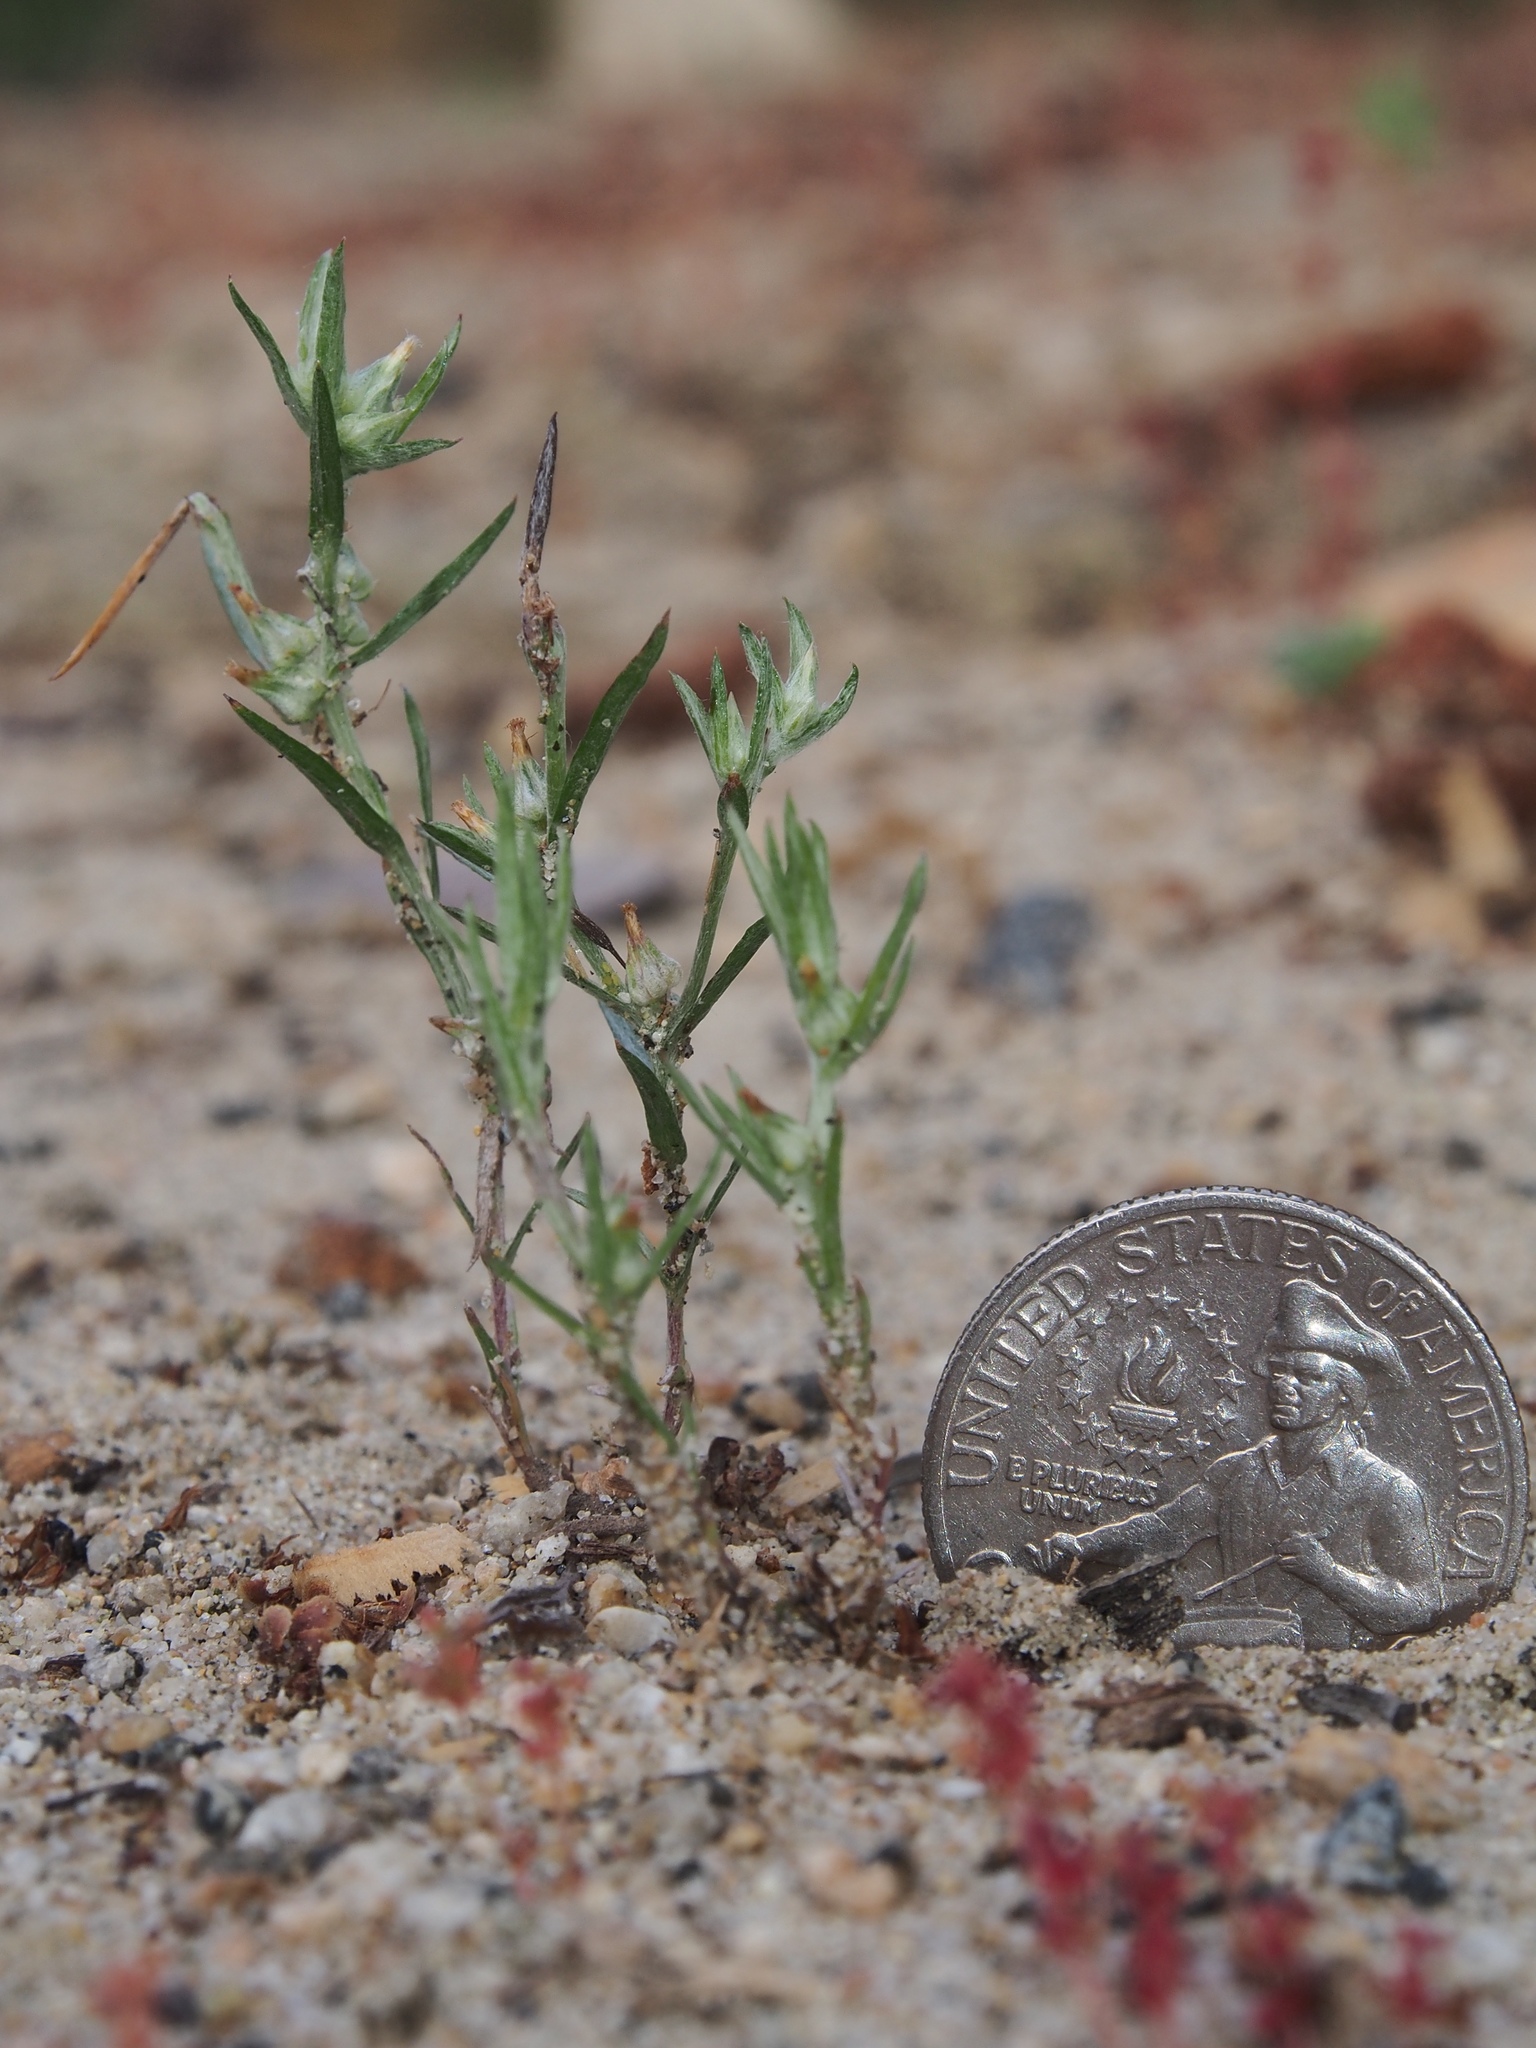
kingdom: Plantae
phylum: Tracheophyta
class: Magnoliopsida
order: Asterales
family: Asteraceae
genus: Logfia
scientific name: Logfia gallica
